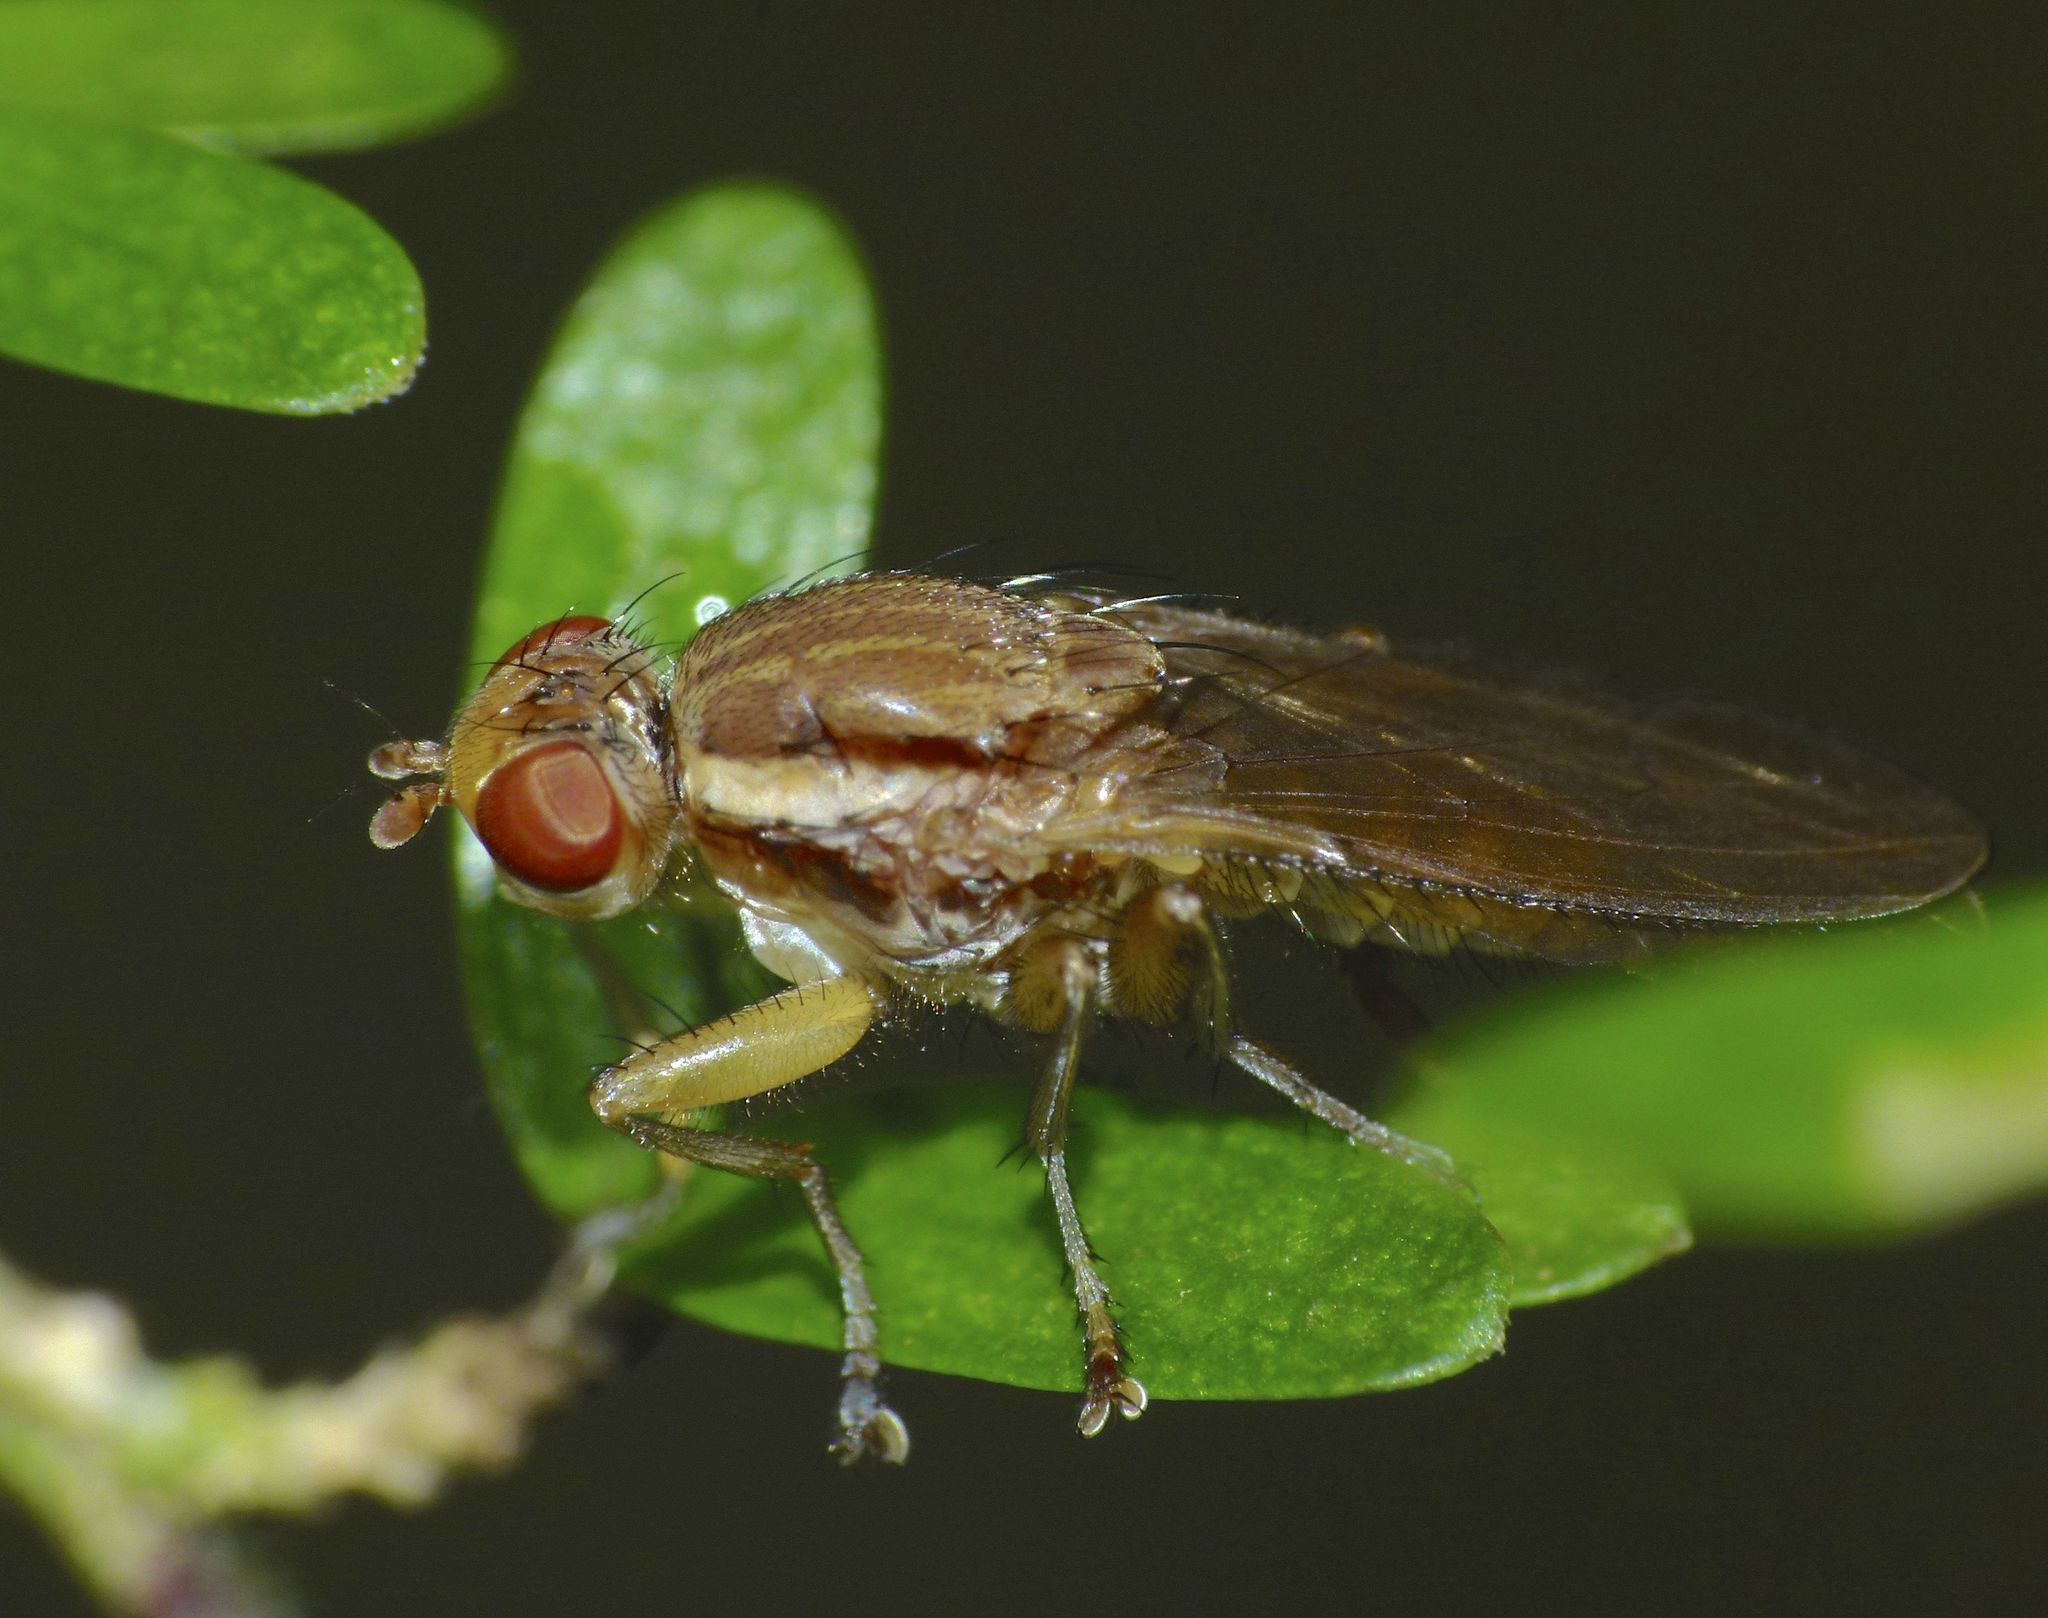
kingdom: Animalia
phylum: Arthropoda
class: Insecta
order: Diptera
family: Helosciomyzidae
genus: Napaeosciomyza
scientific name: Napaeosciomyza spinicosta
